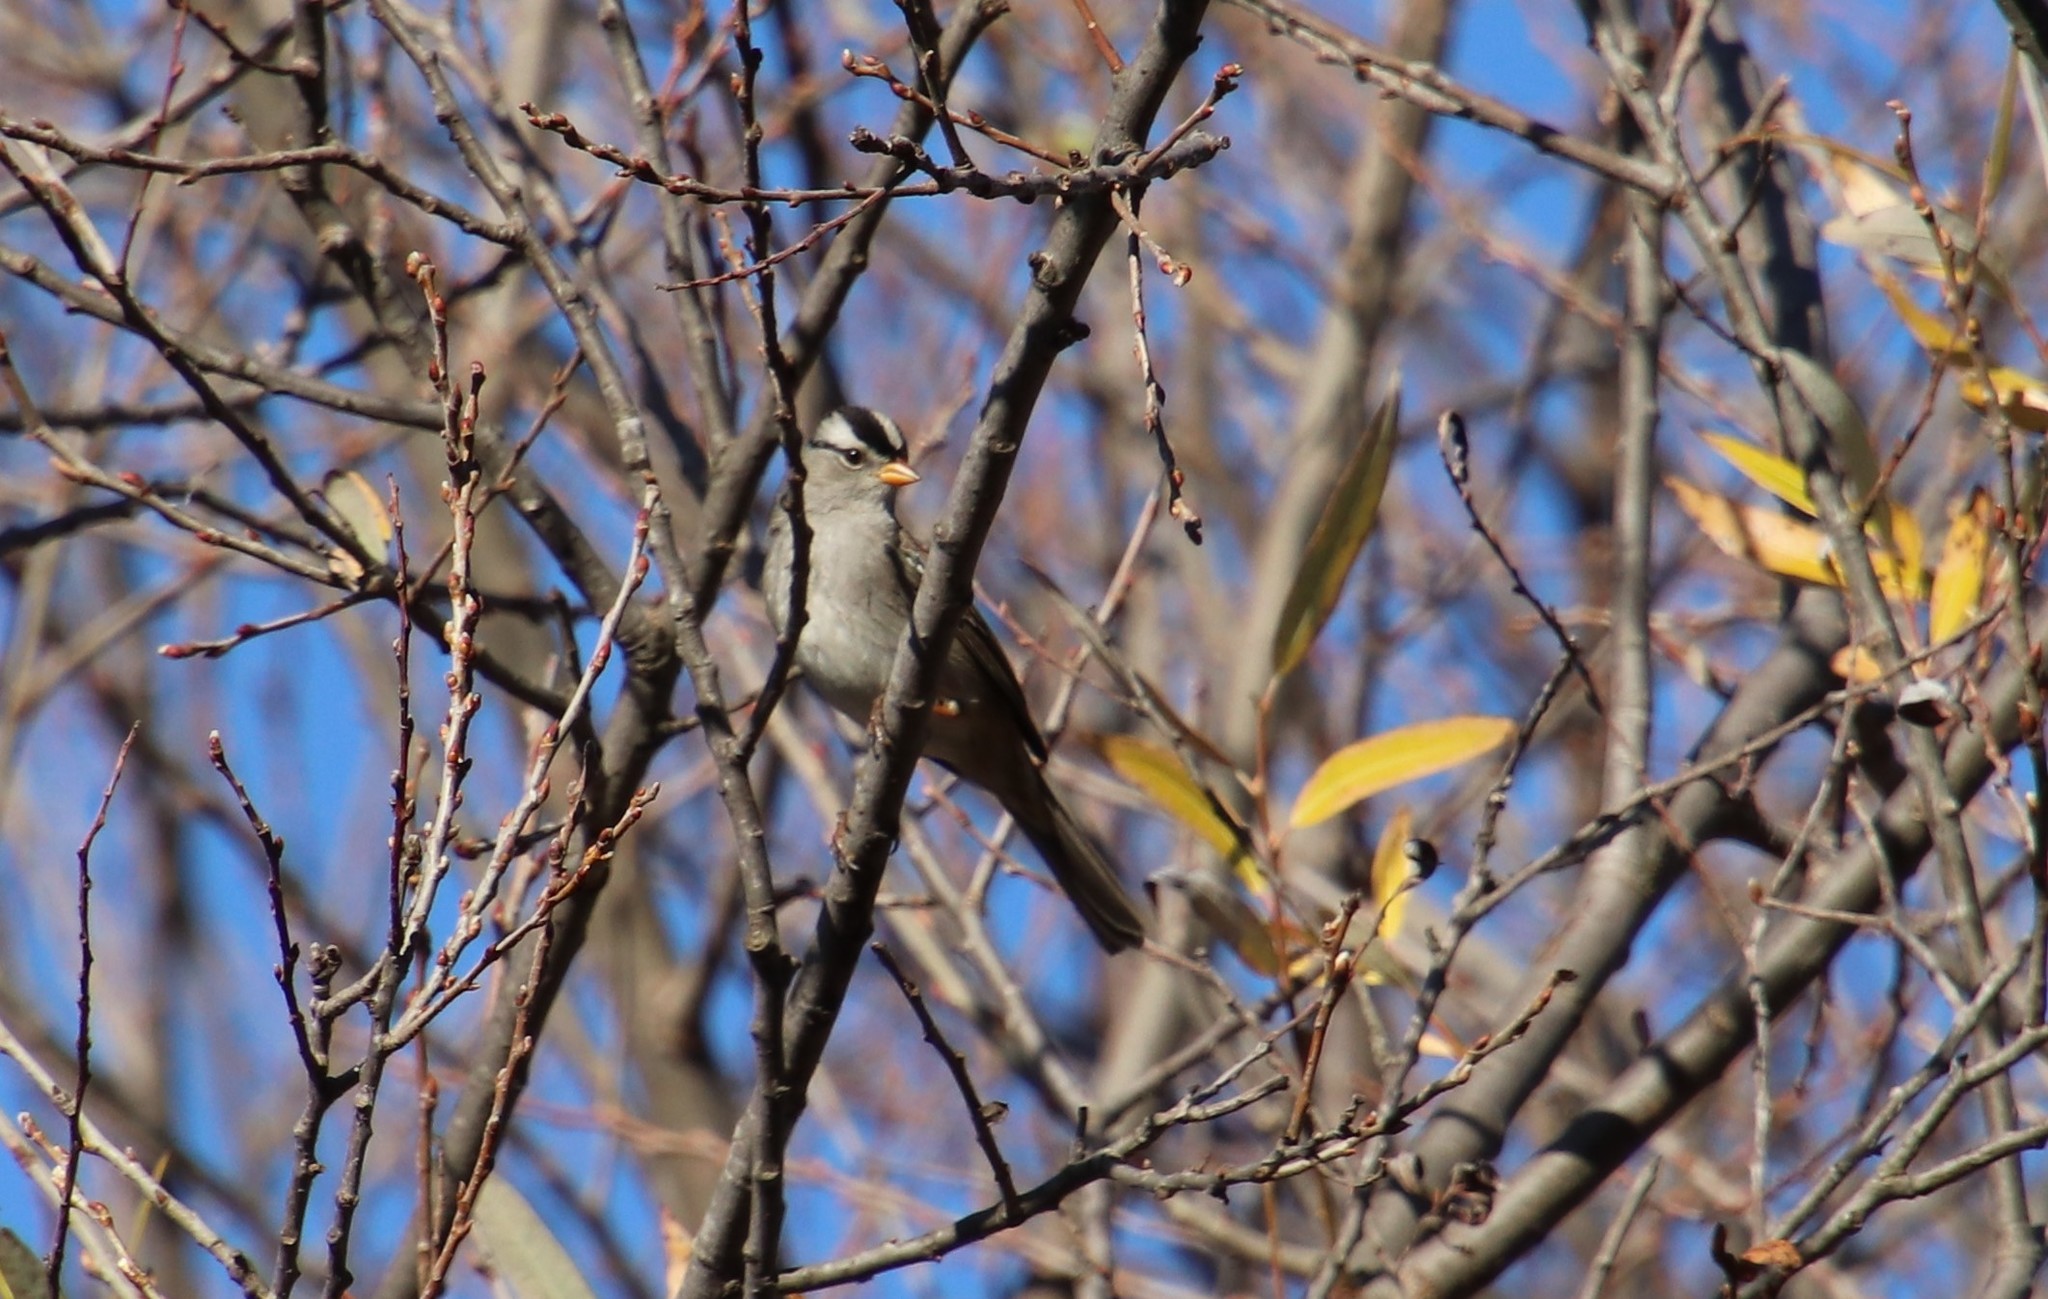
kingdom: Animalia
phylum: Chordata
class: Aves
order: Passeriformes
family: Passerellidae
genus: Zonotrichia
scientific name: Zonotrichia leucophrys
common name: White-crowned sparrow
